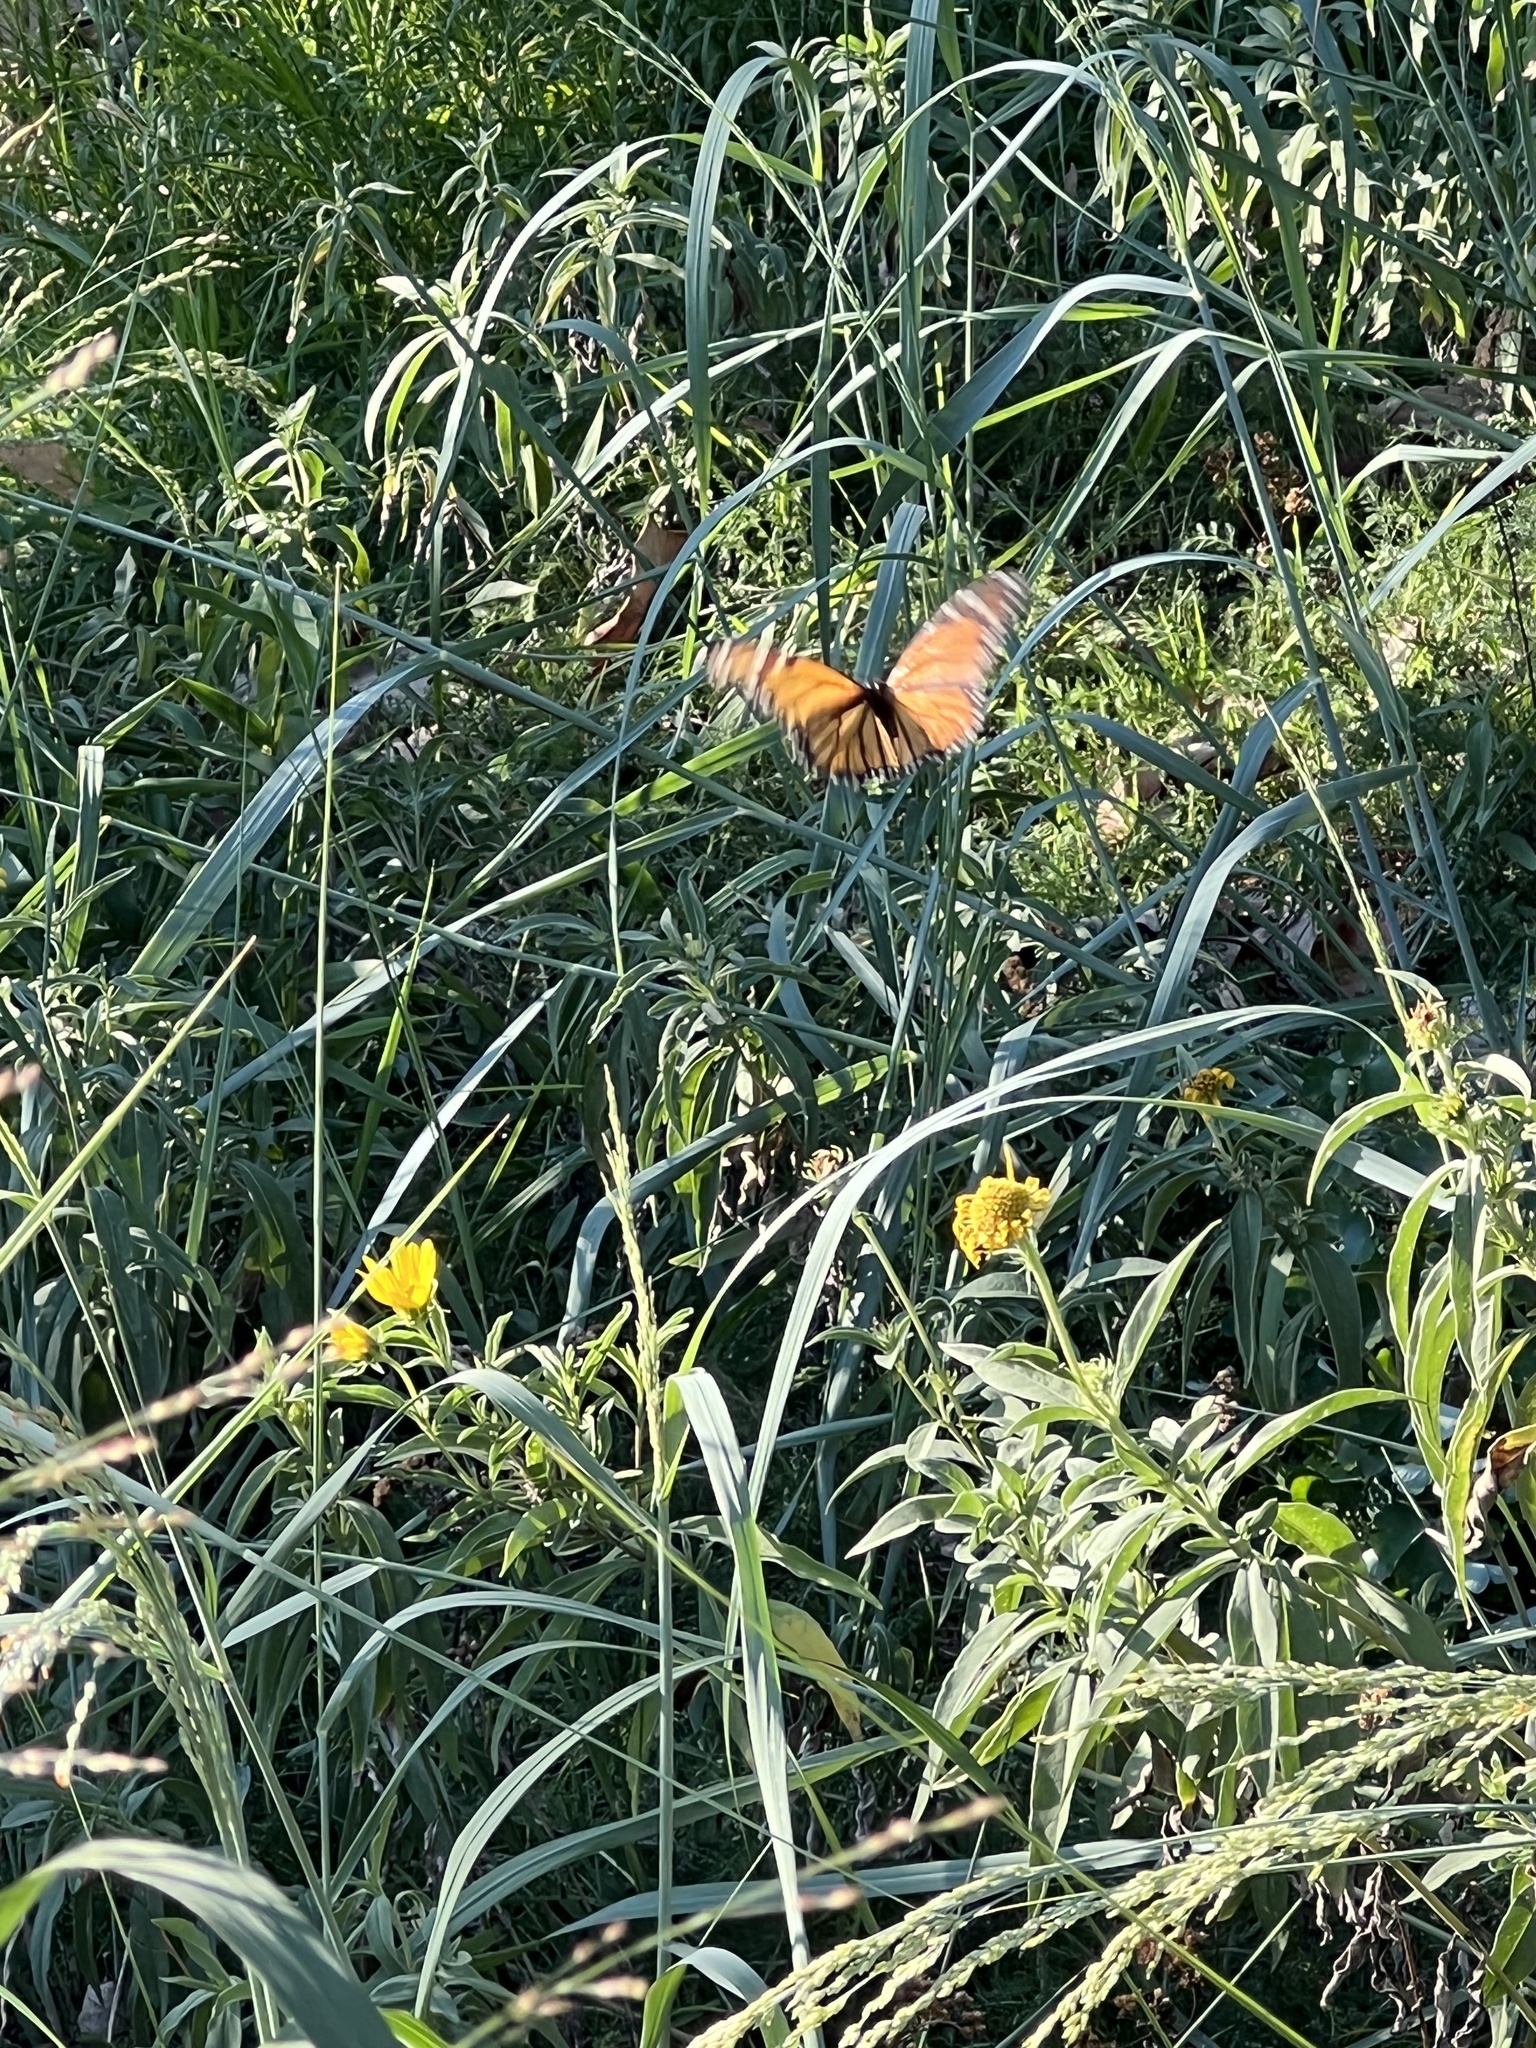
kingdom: Animalia
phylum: Arthropoda
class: Insecta
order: Lepidoptera
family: Nymphalidae
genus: Danaus
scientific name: Danaus plexippus
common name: Monarch
